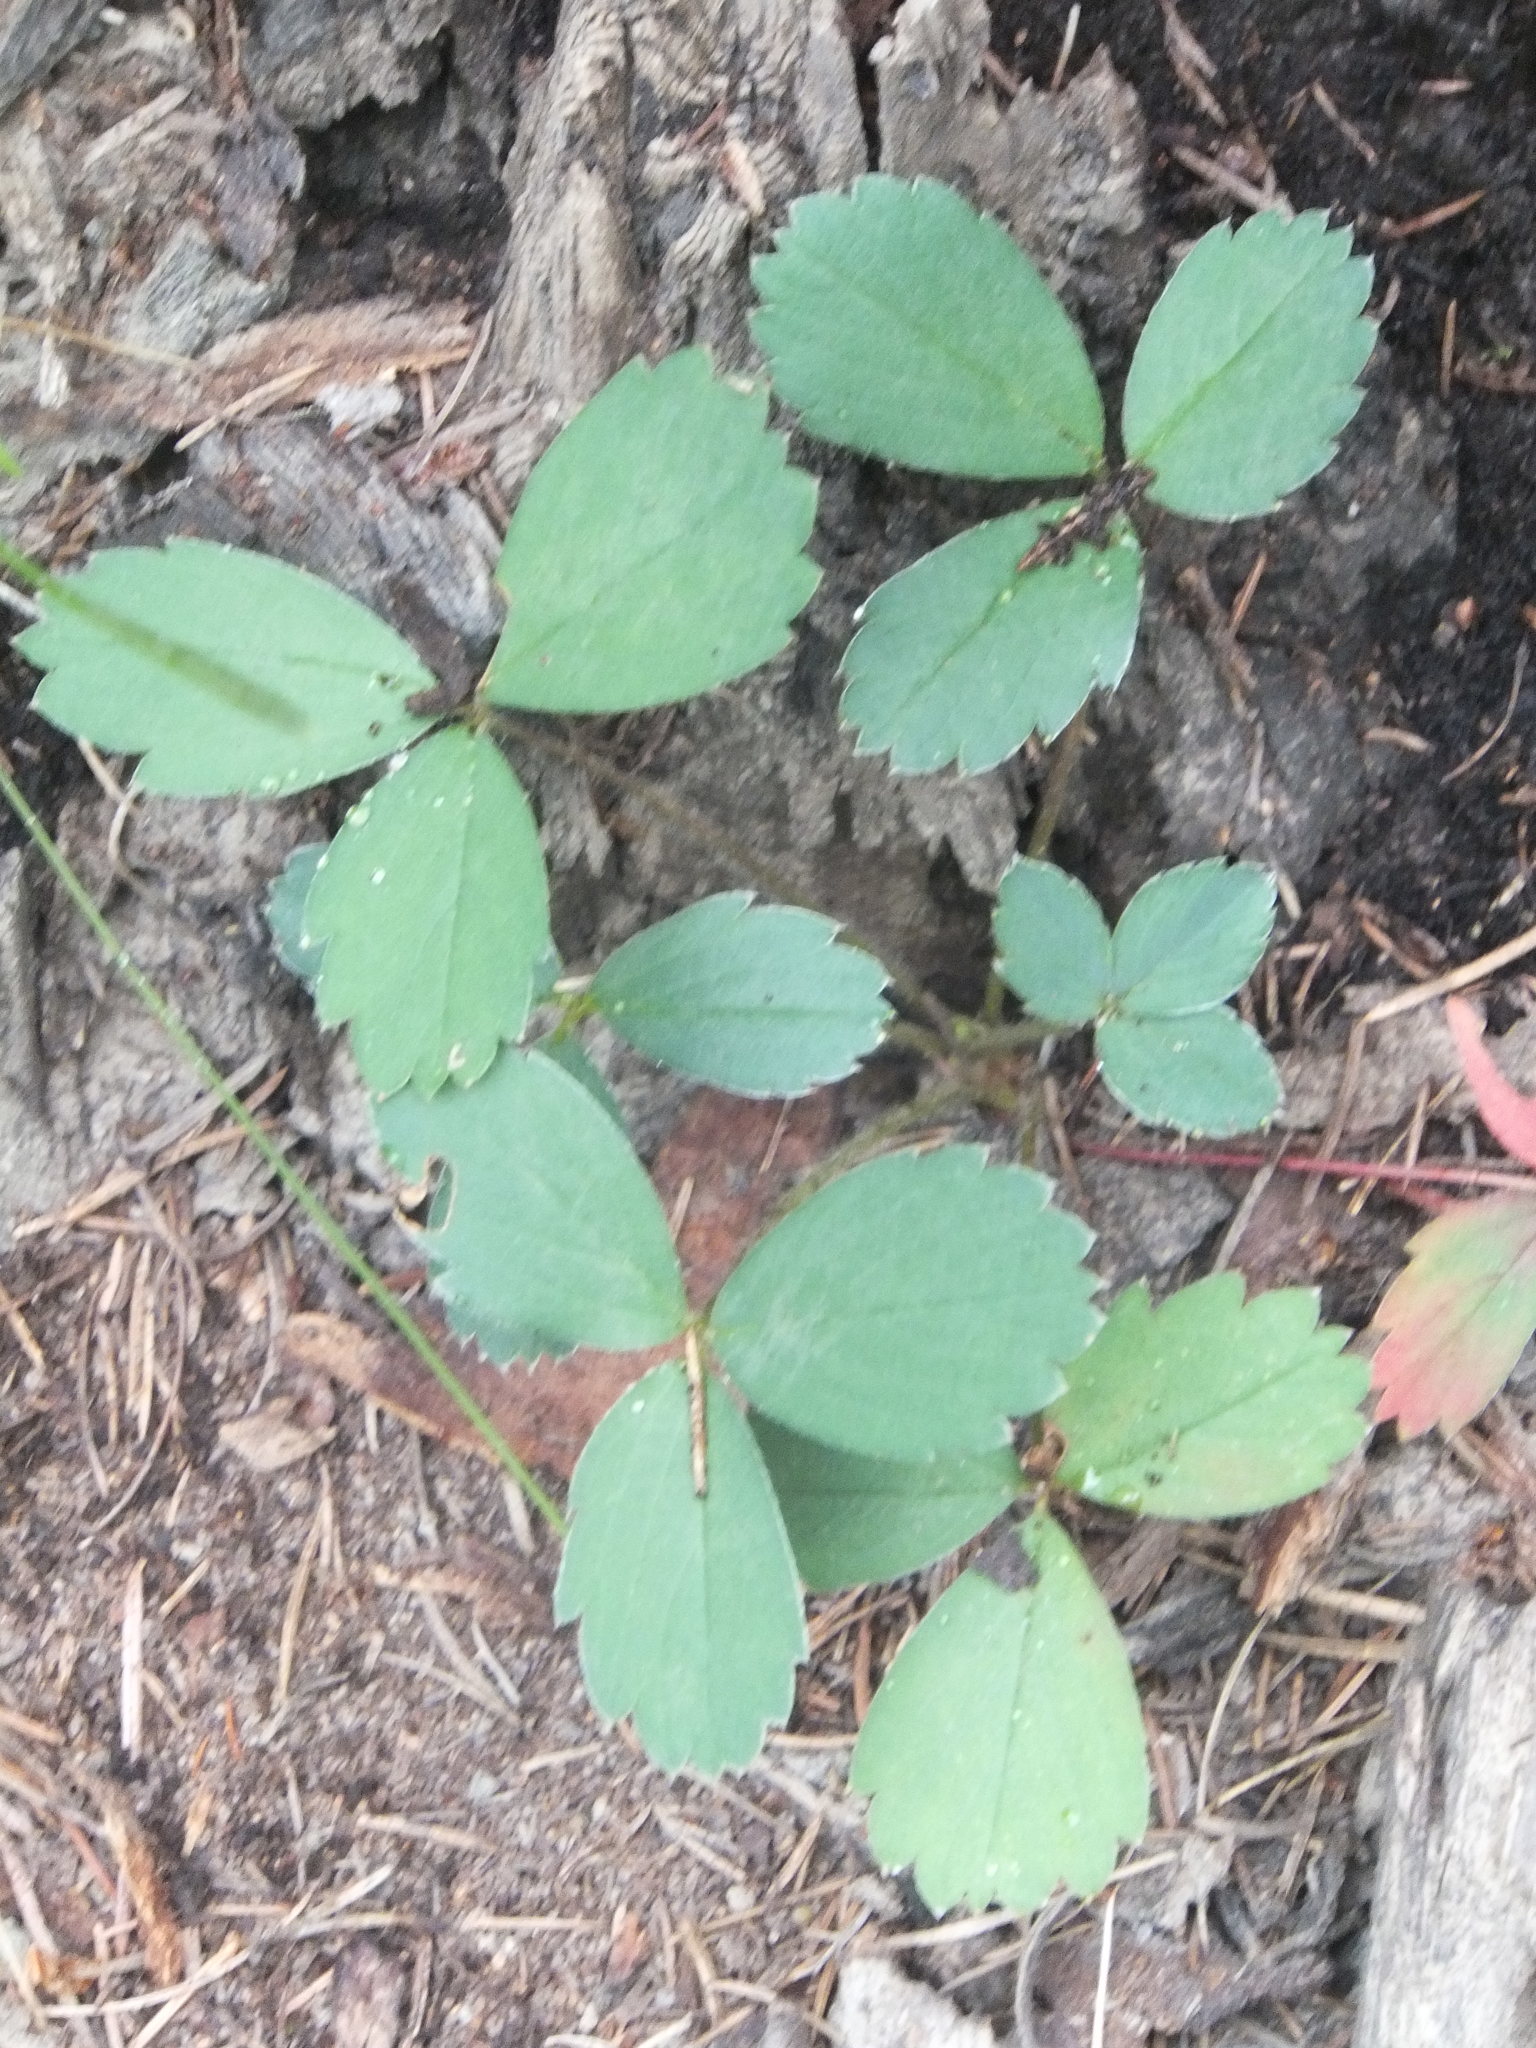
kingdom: Plantae
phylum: Tracheophyta
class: Magnoliopsida
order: Rosales
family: Rosaceae
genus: Fragaria
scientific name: Fragaria virginiana
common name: Thickleaved wild strawberry
